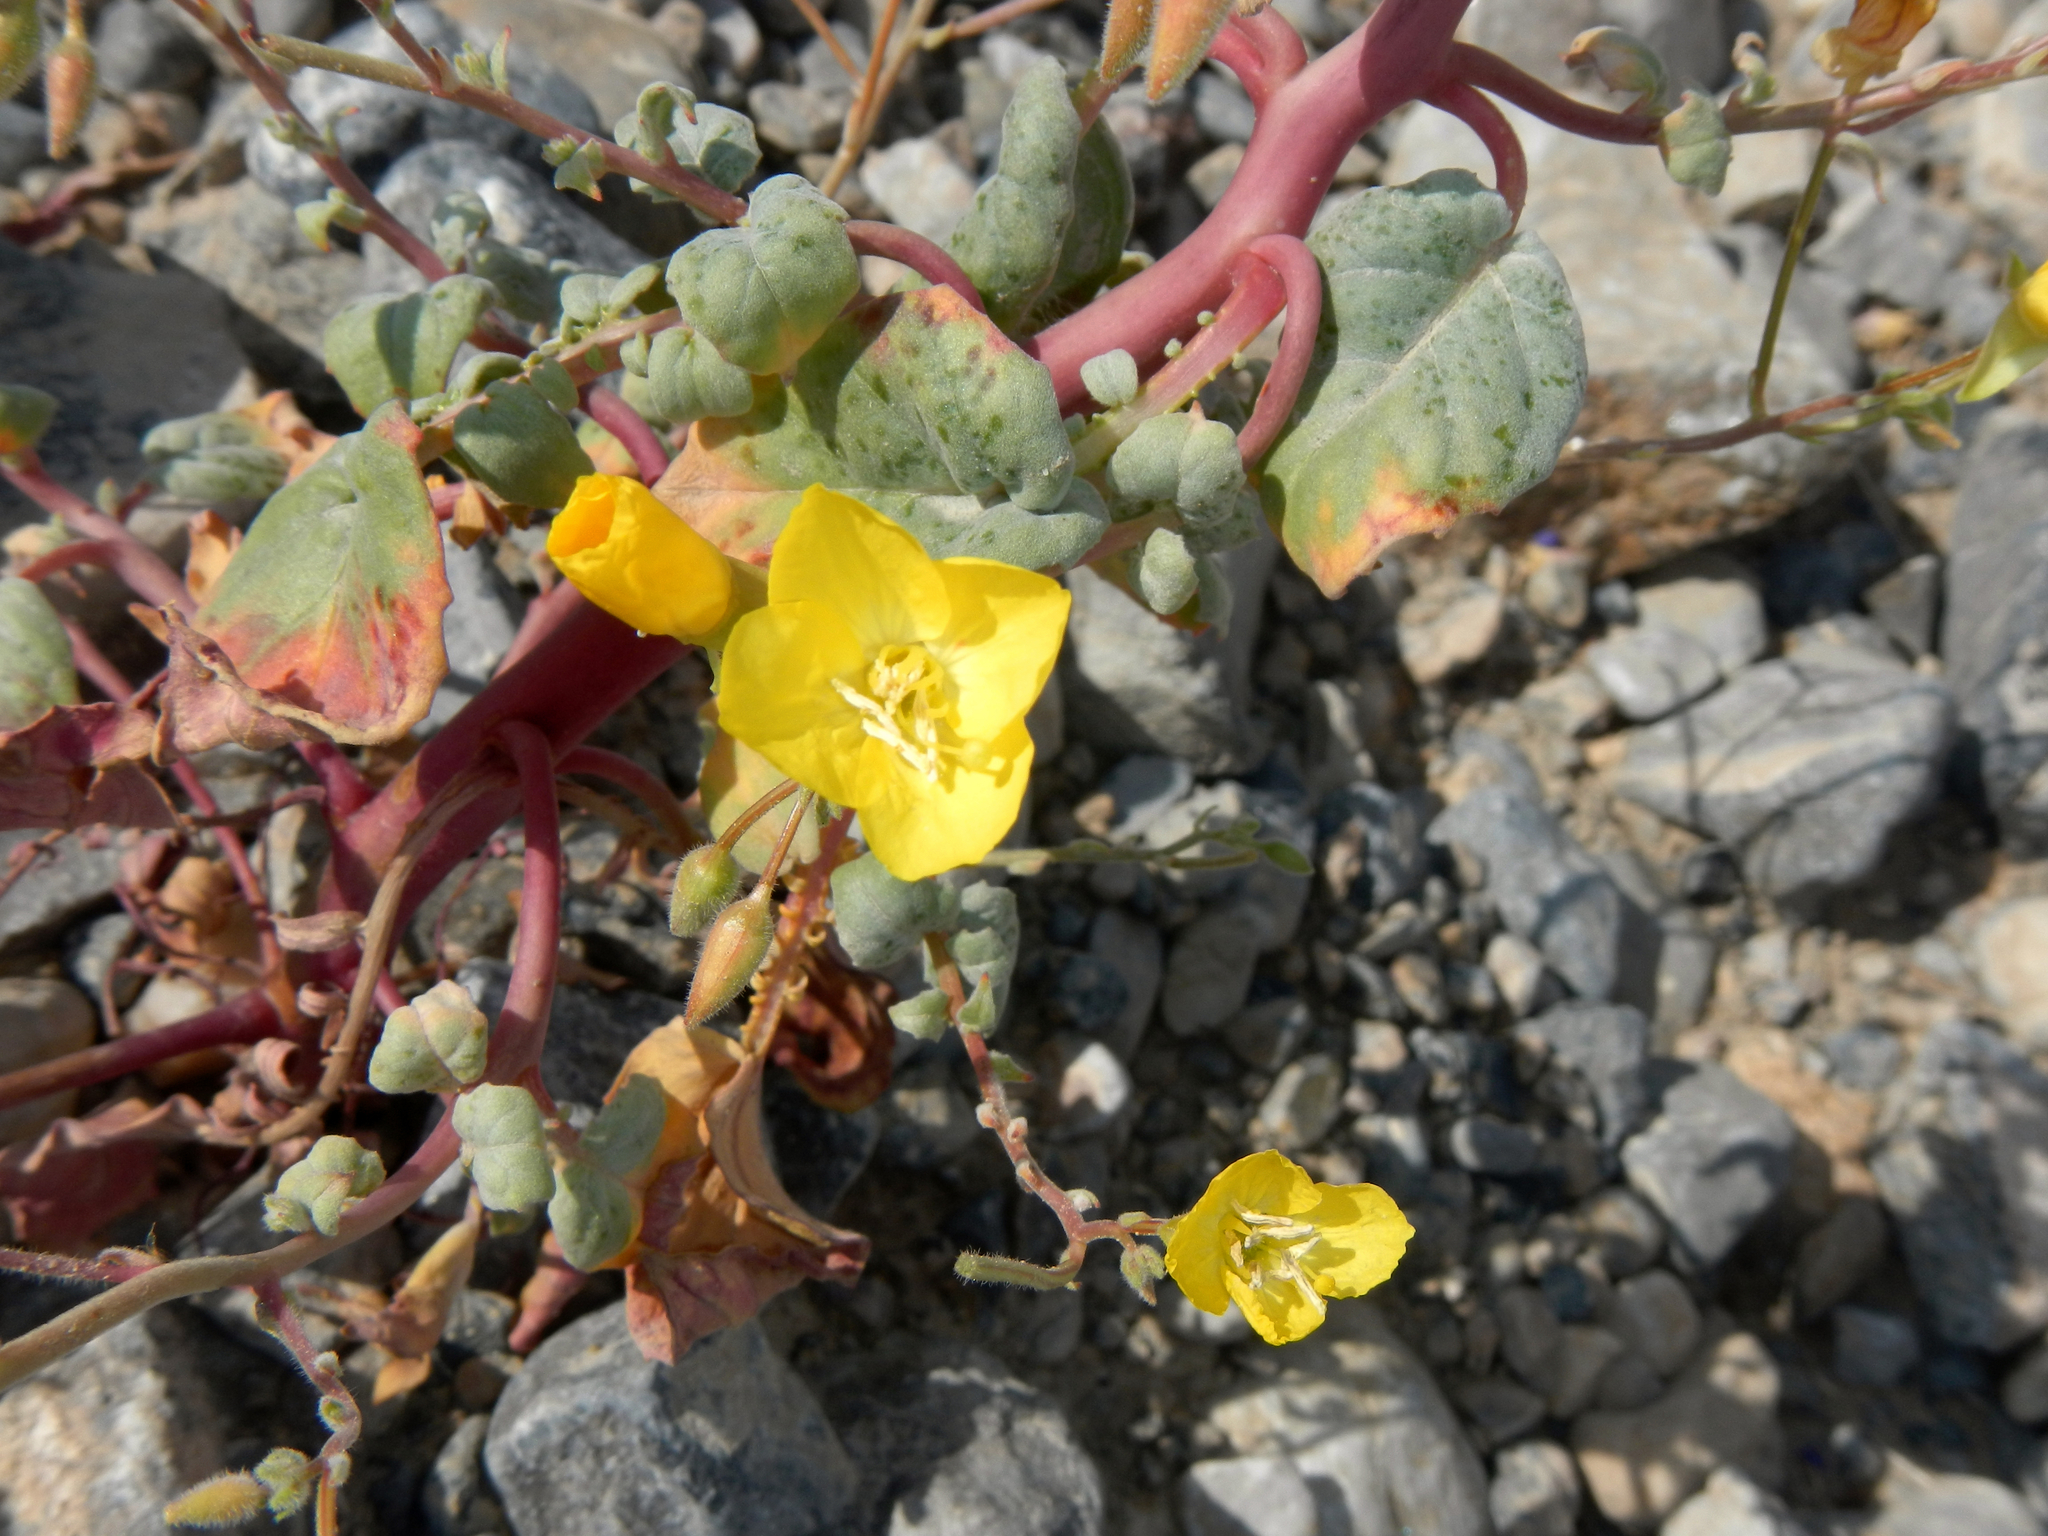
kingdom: Plantae
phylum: Tracheophyta
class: Magnoliopsida
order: Myrtales
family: Onagraceae
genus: Chylismia
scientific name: Chylismia brevipes
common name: Yellow cups
